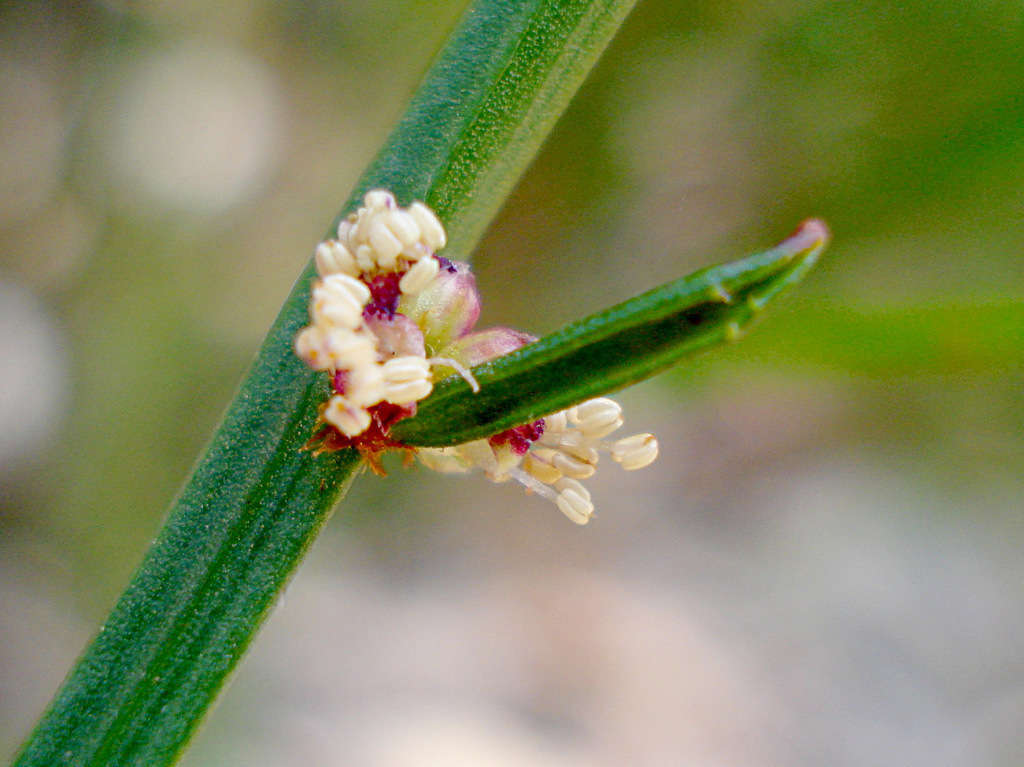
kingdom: Plantae
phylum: Tracheophyta
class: Magnoliopsida
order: Malpighiales
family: Euphorbiaceae
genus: Amperea
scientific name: Amperea xiphoclada
